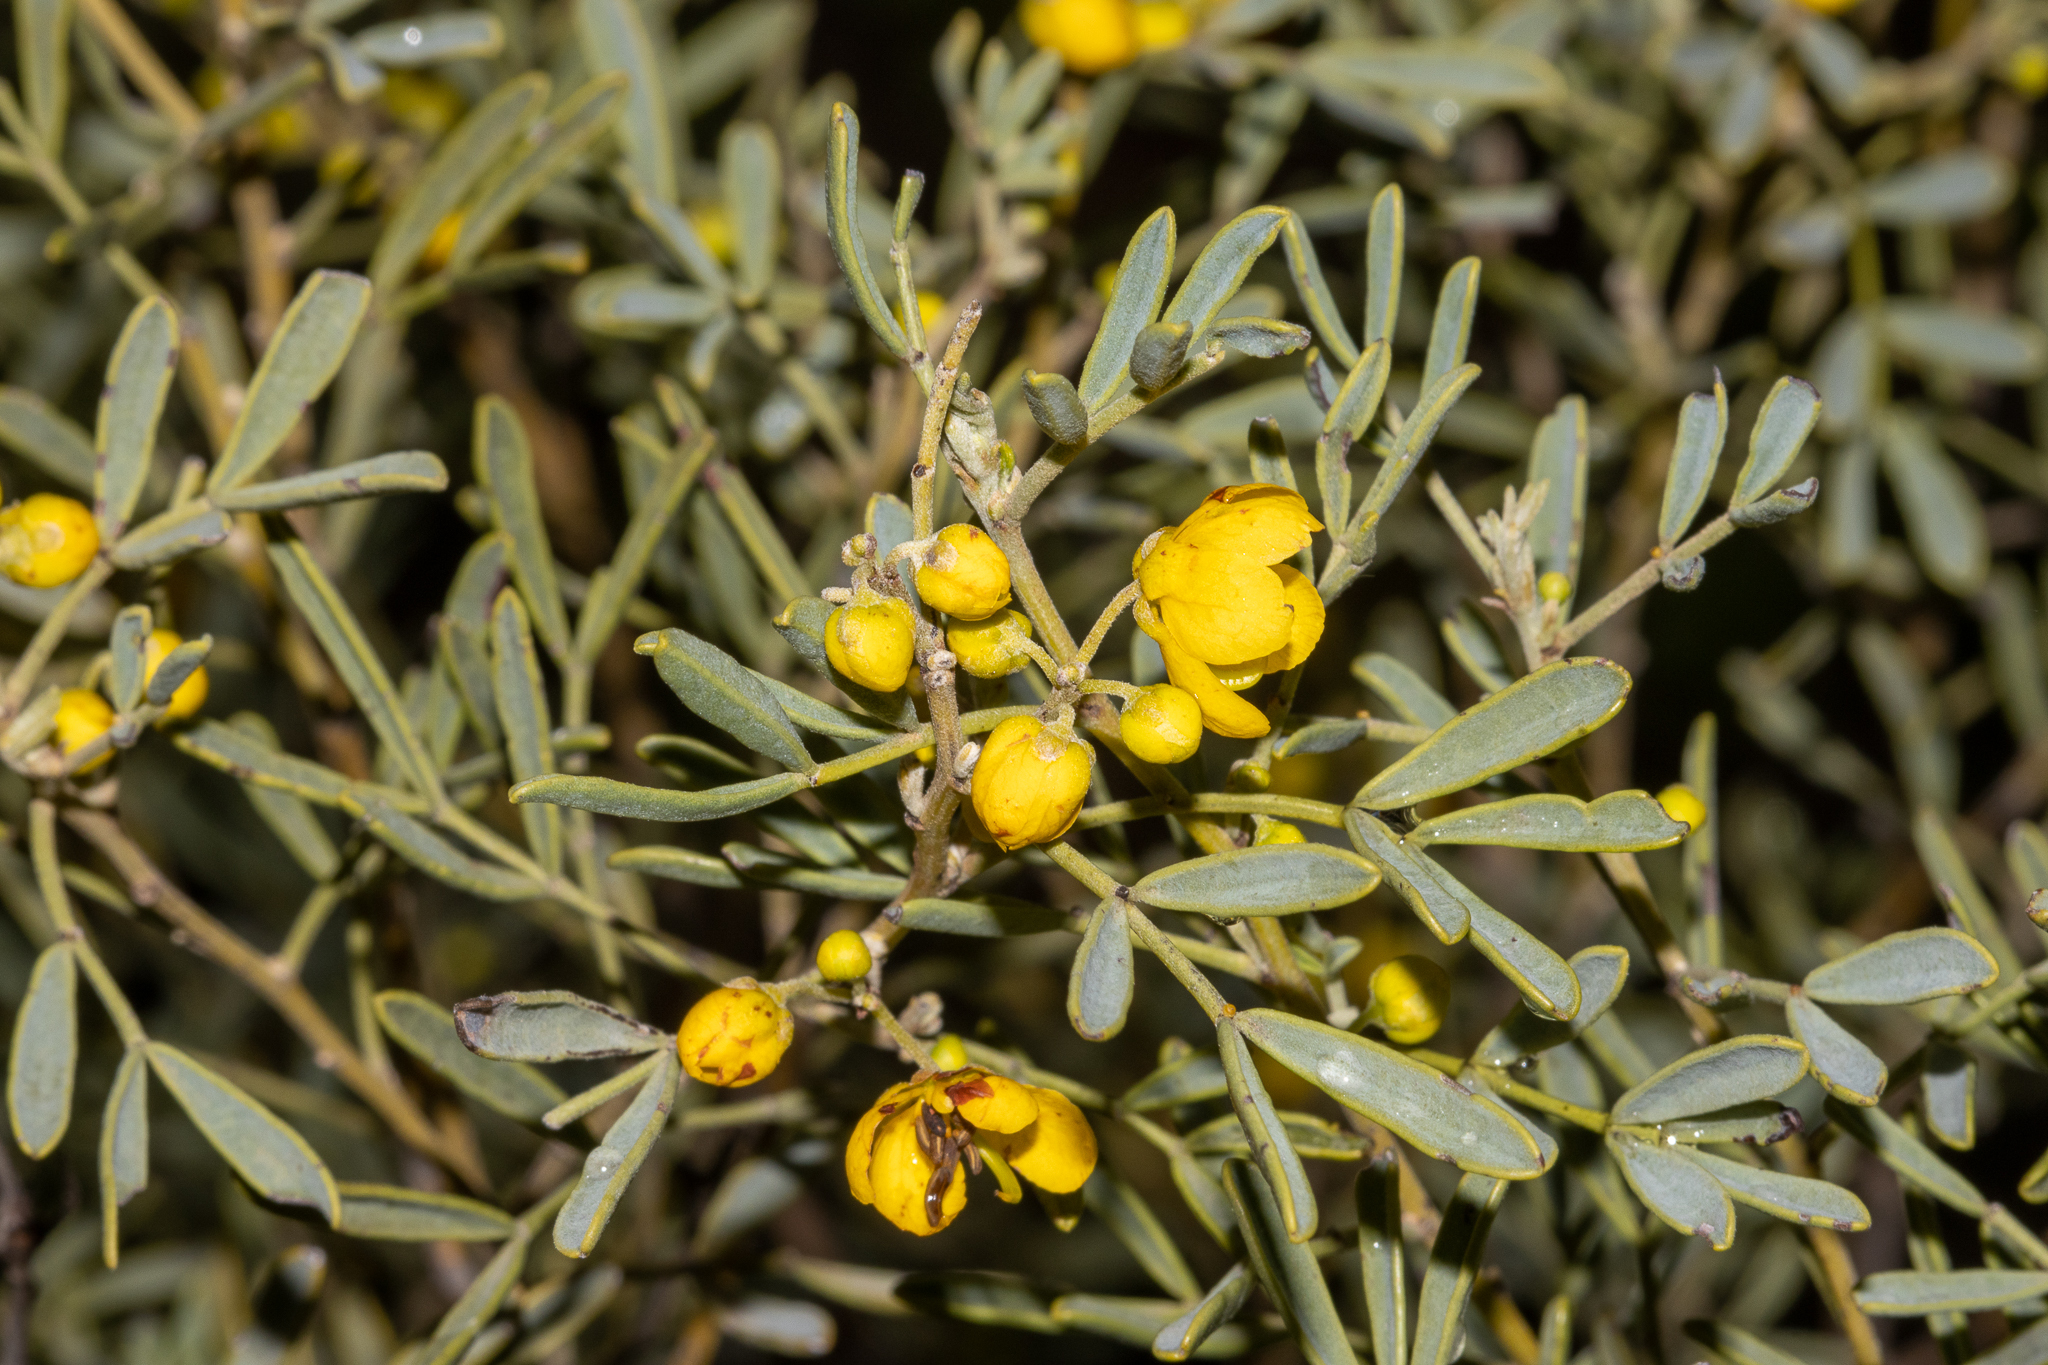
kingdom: Plantae
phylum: Tracheophyta
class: Magnoliopsida
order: Fabales
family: Fabaceae
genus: Senna
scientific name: Senna artemisioides
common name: Burnt-leaved acacia
